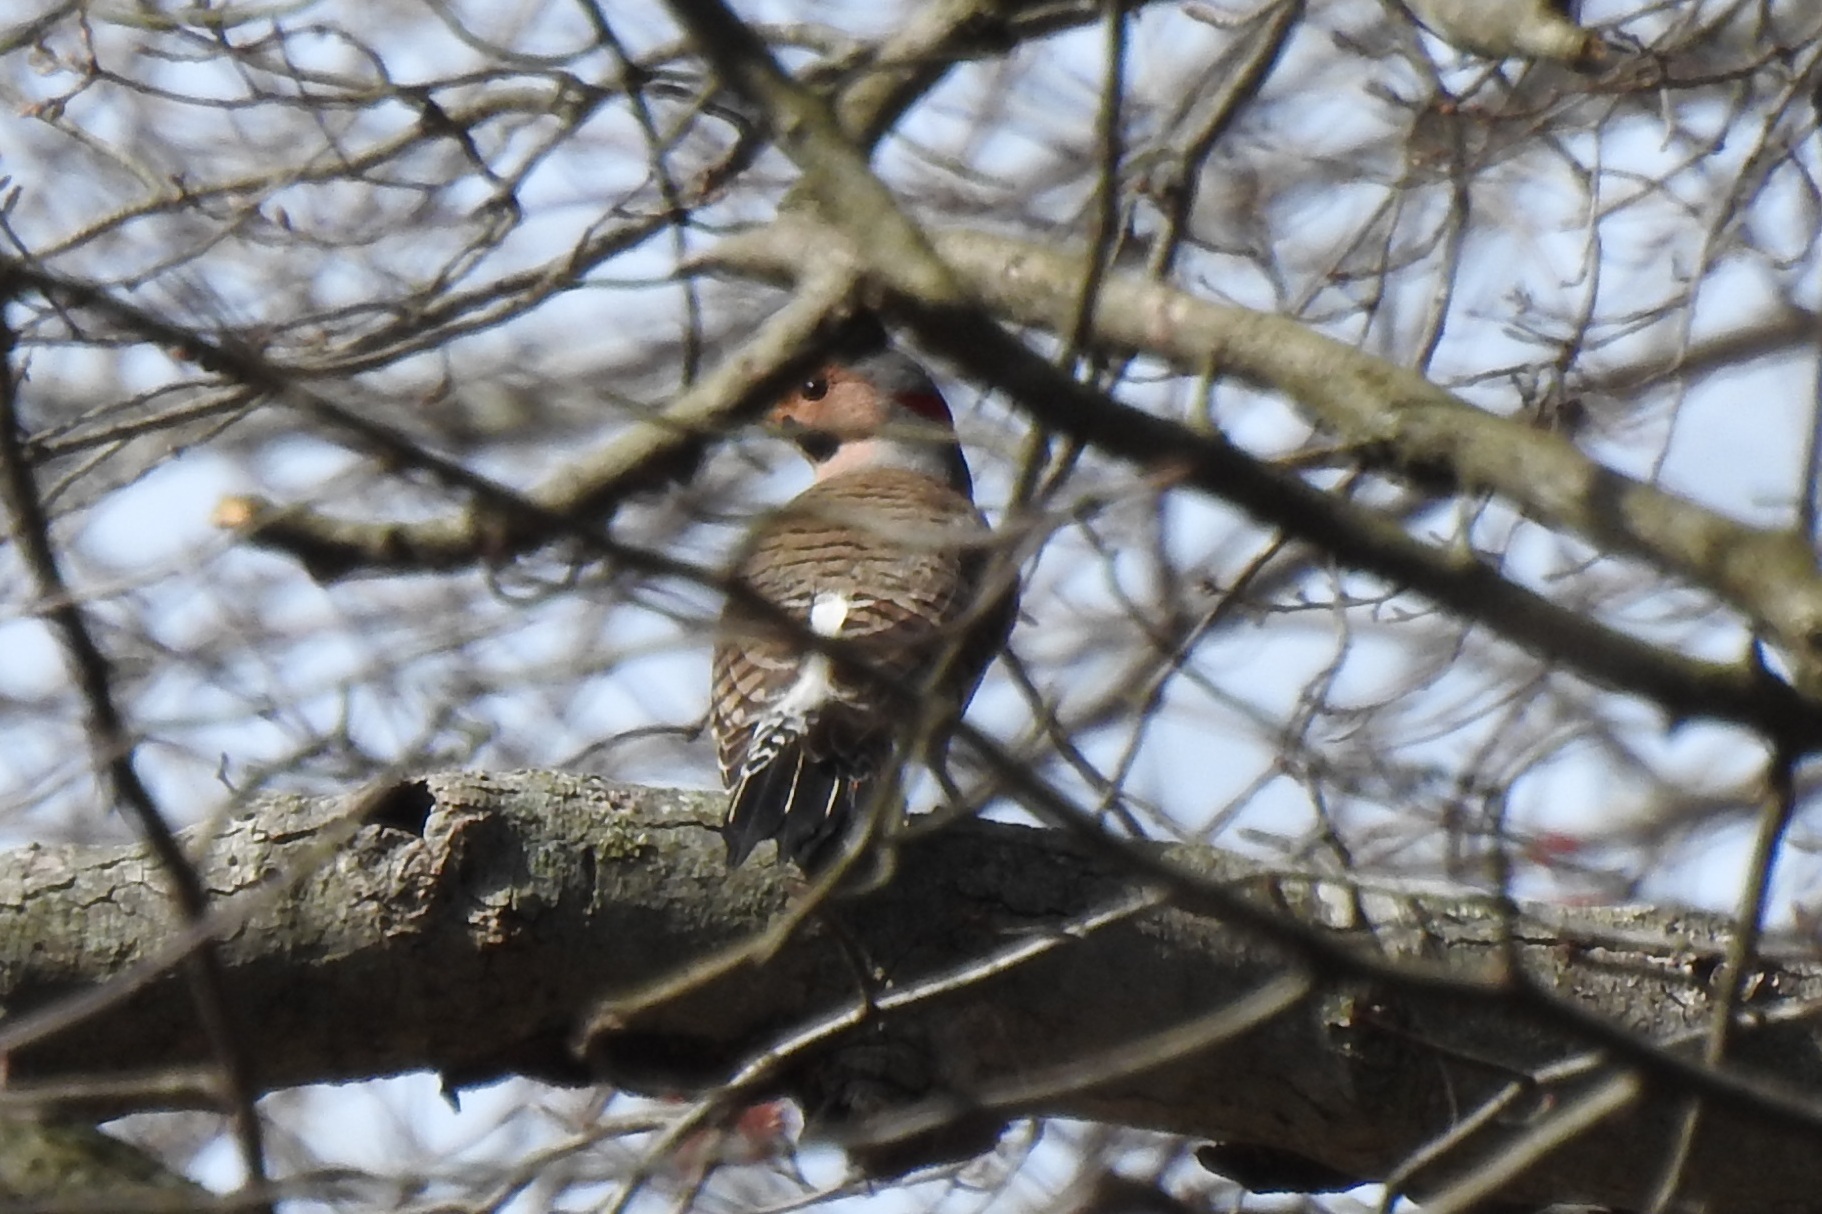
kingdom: Animalia
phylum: Chordata
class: Aves
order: Piciformes
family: Picidae
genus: Colaptes
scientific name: Colaptes auratus
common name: Northern flicker
